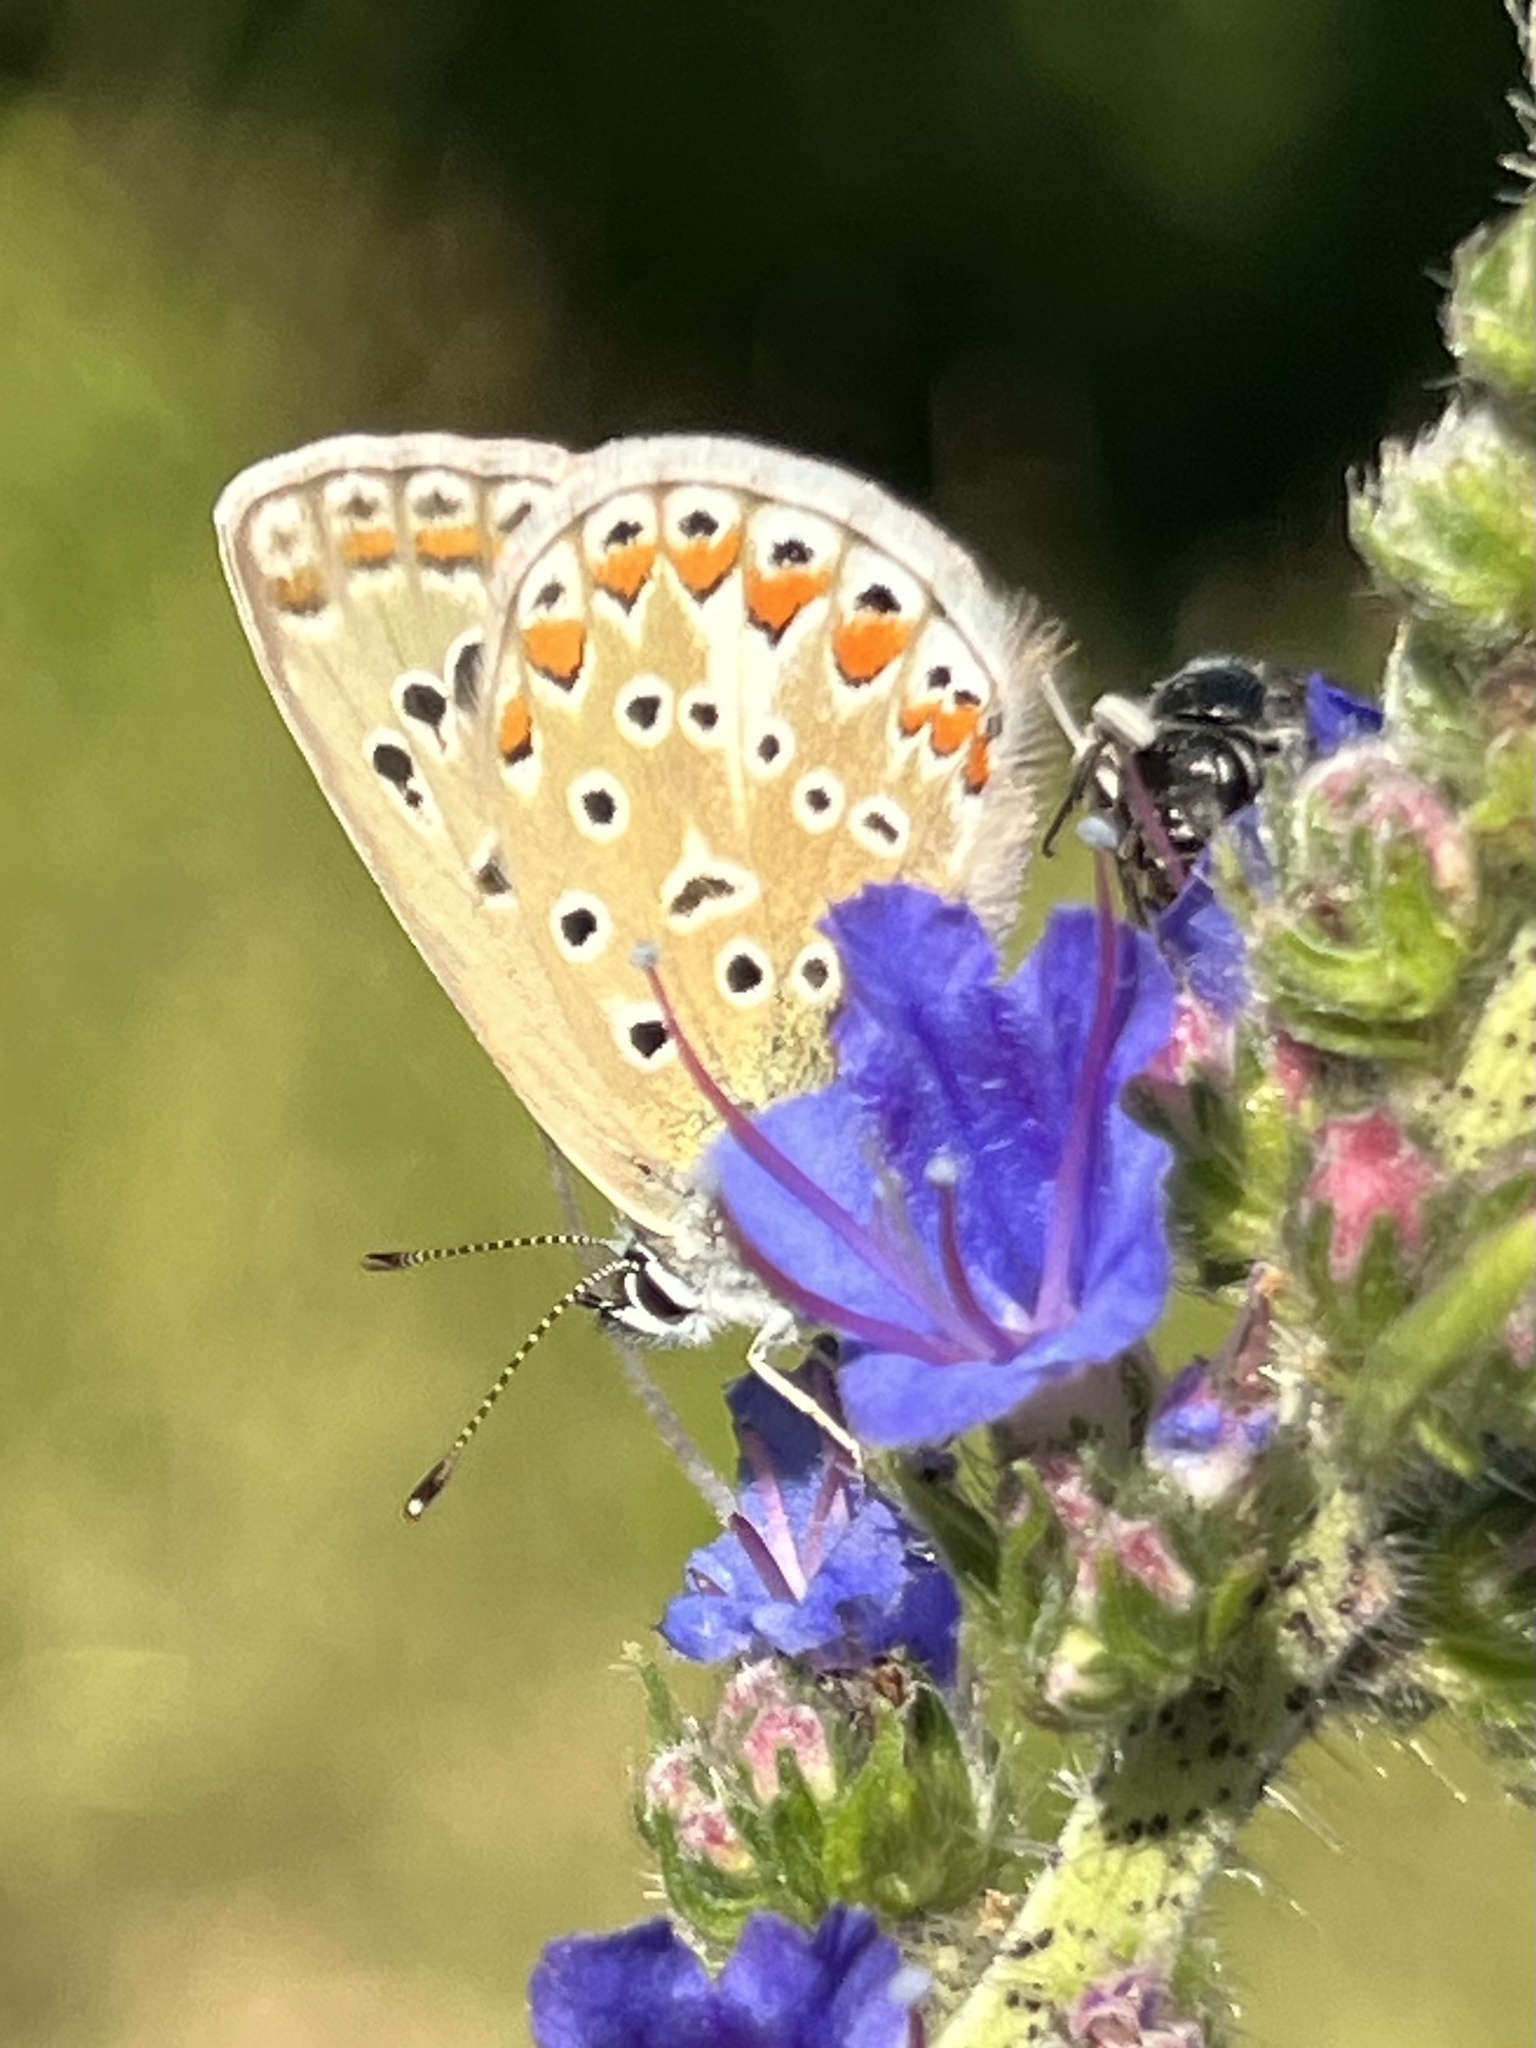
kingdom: Animalia
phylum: Arthropoda
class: Insecta
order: Lepidoptera
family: Lycaenidae
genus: Polyommatus
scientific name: Polyommatus icarus
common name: Common blue
